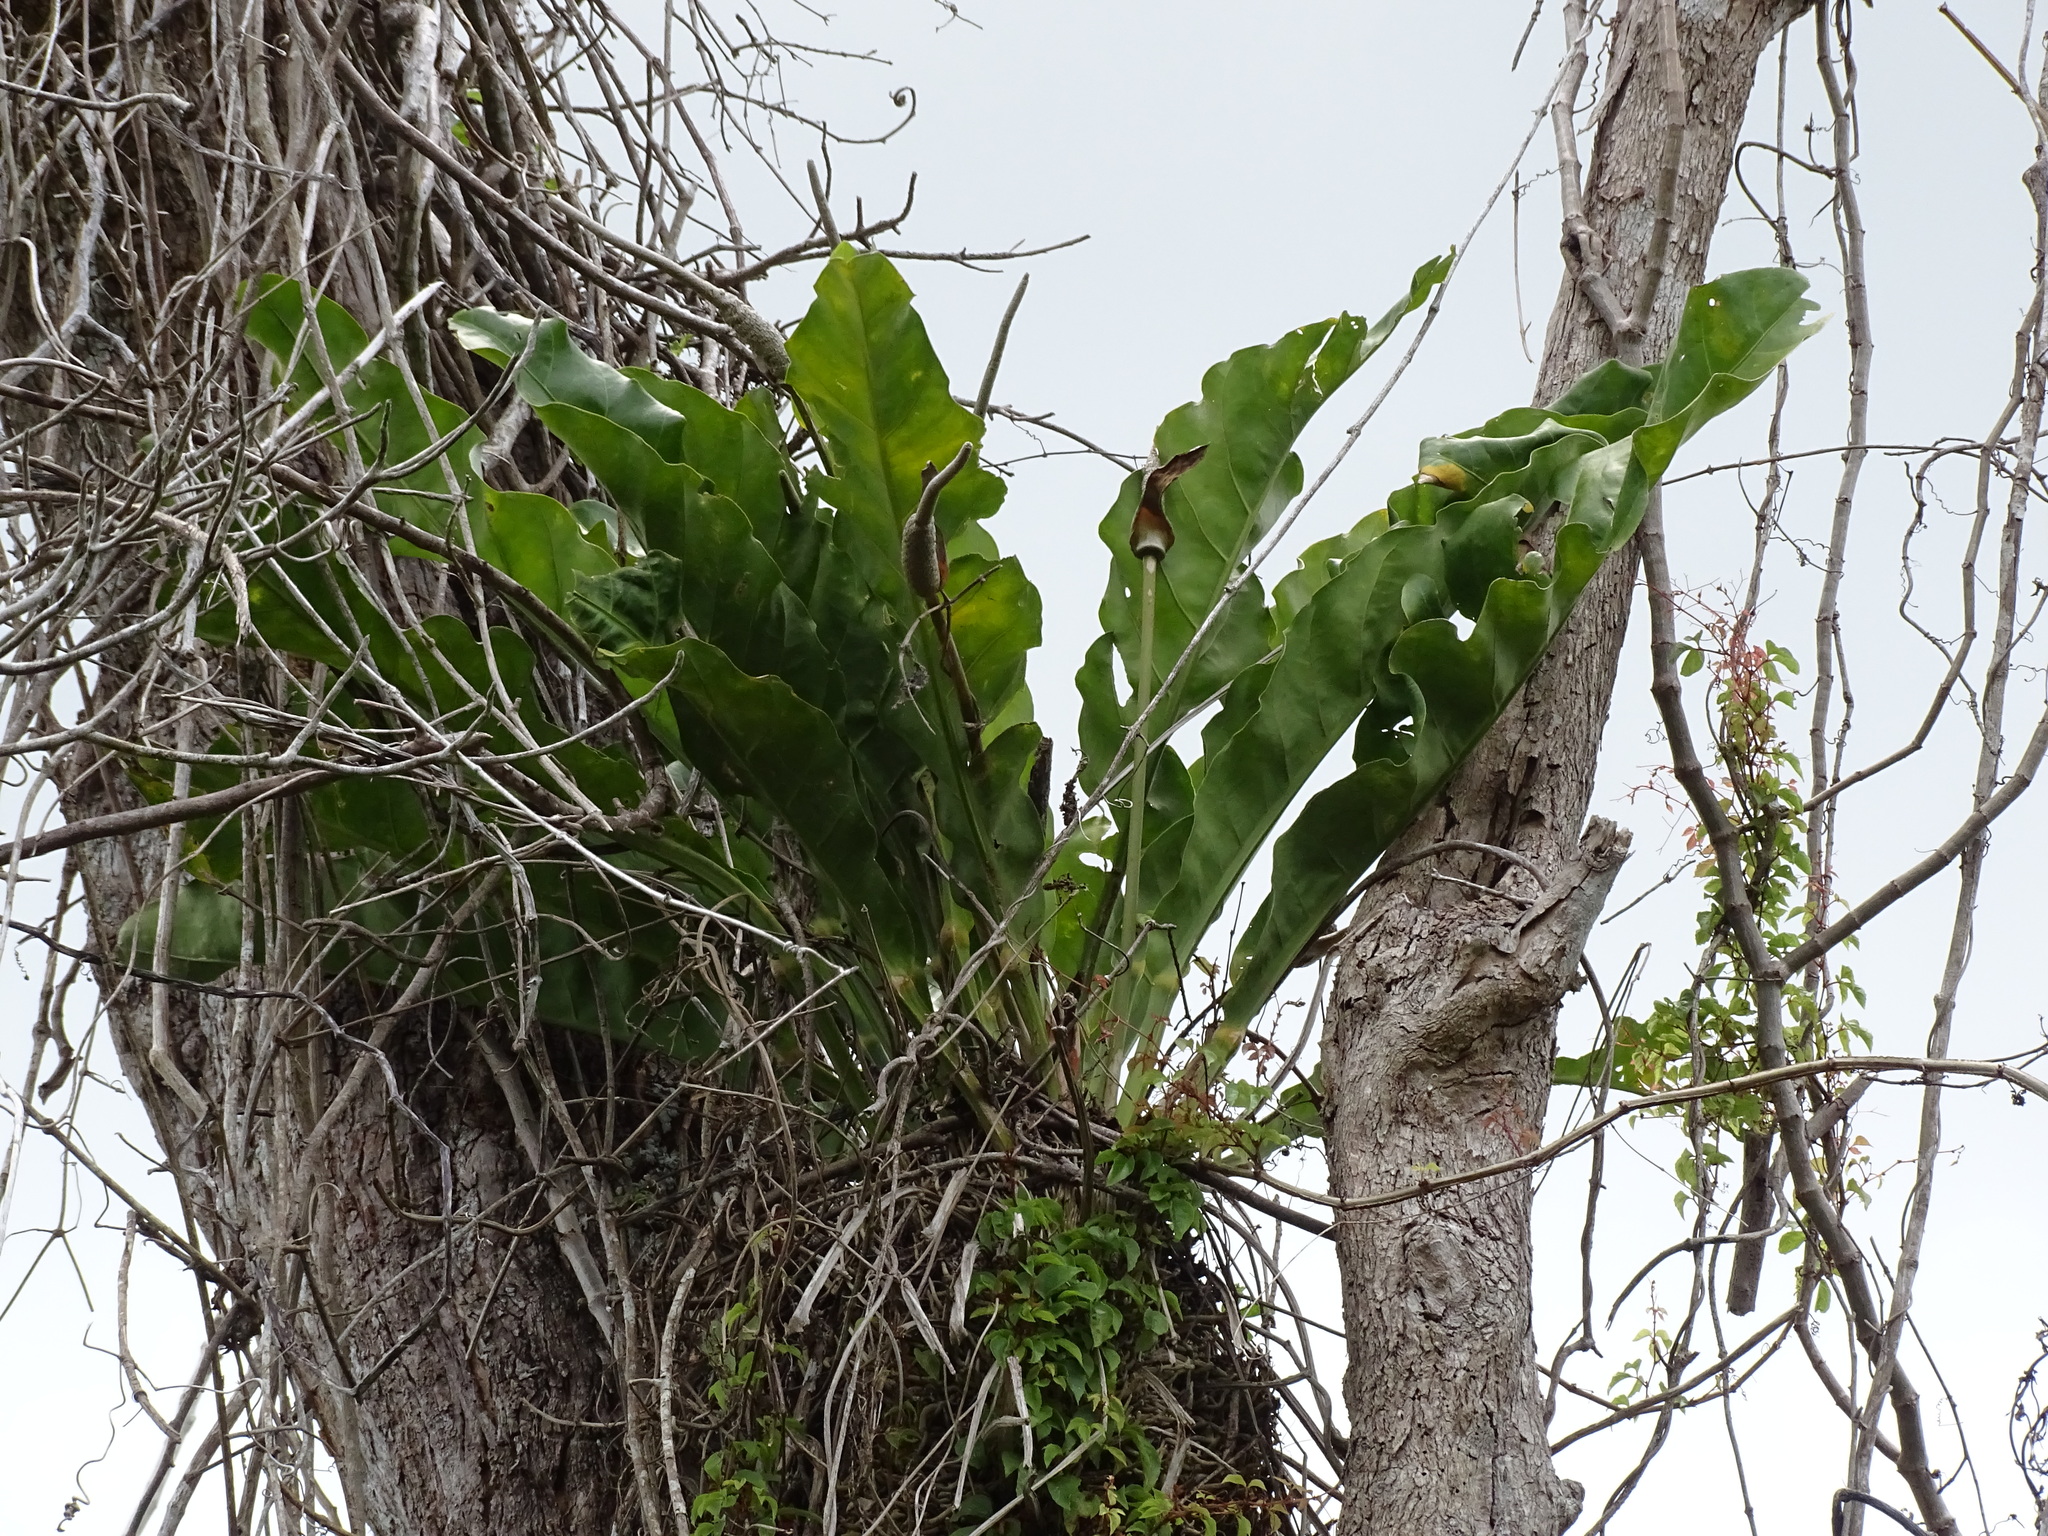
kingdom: Plantae
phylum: Tracheophyta
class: Liliopsida
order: Alismatales
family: Araceae
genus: Anthurium
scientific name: Anthurium schlechtendalii
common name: Laceleaf
